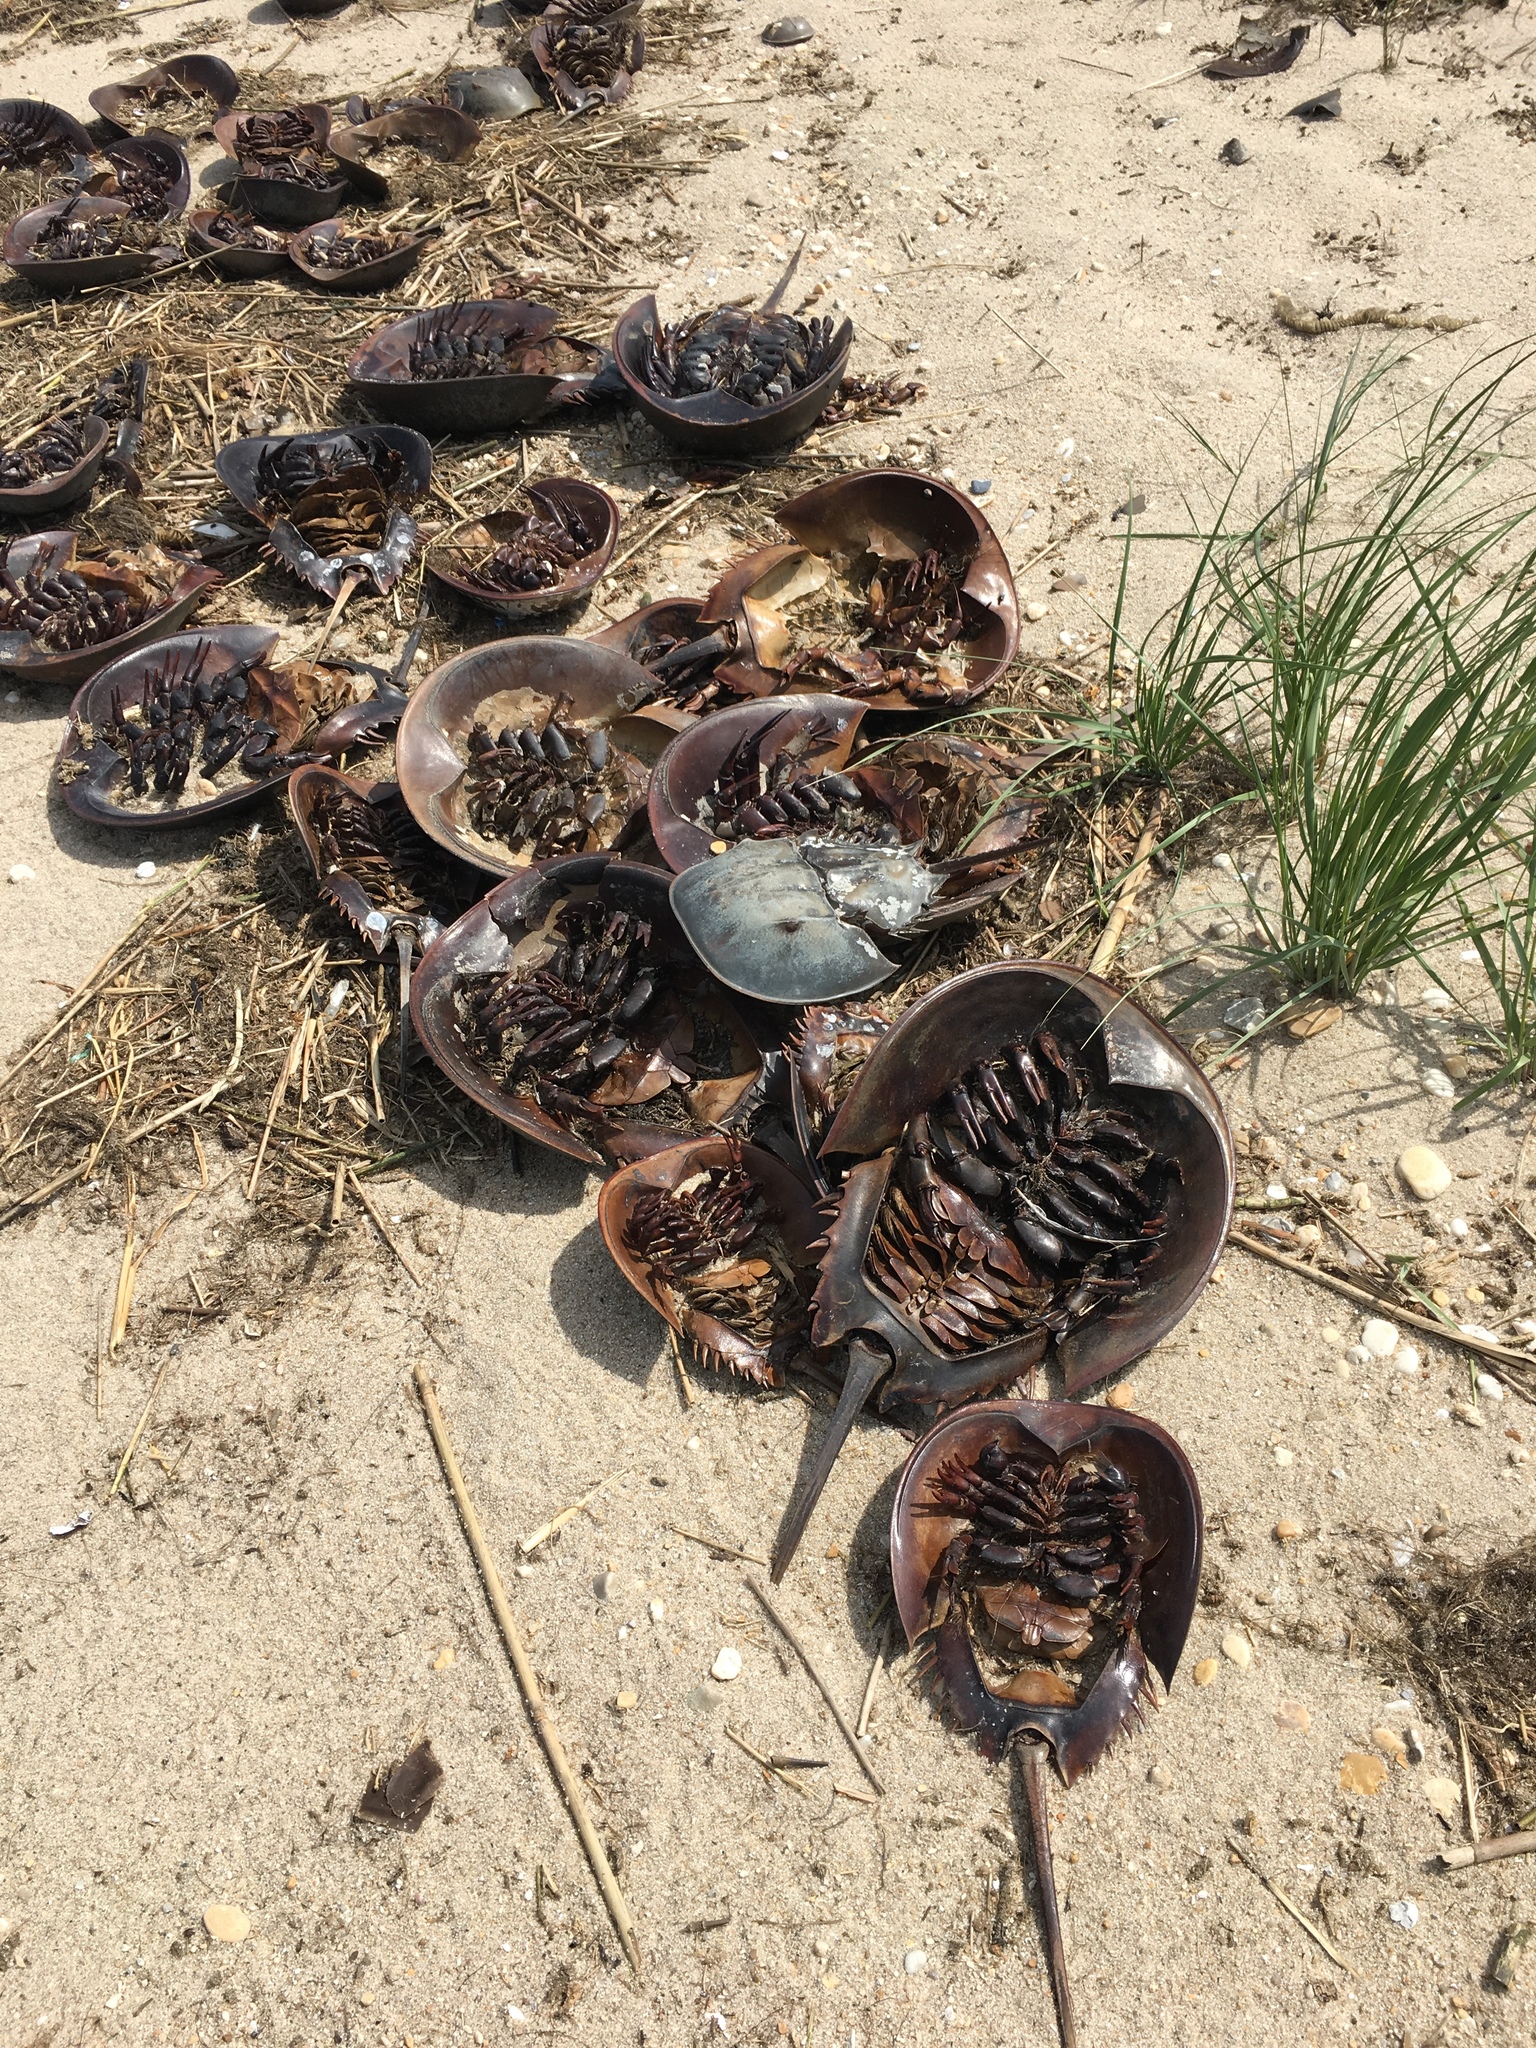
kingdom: Animalia
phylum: Arthropoda
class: Merostomata
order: Xiphosurida
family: Limulidae
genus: Limulus
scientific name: Limulus polyphemus
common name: Horseshoe crab
